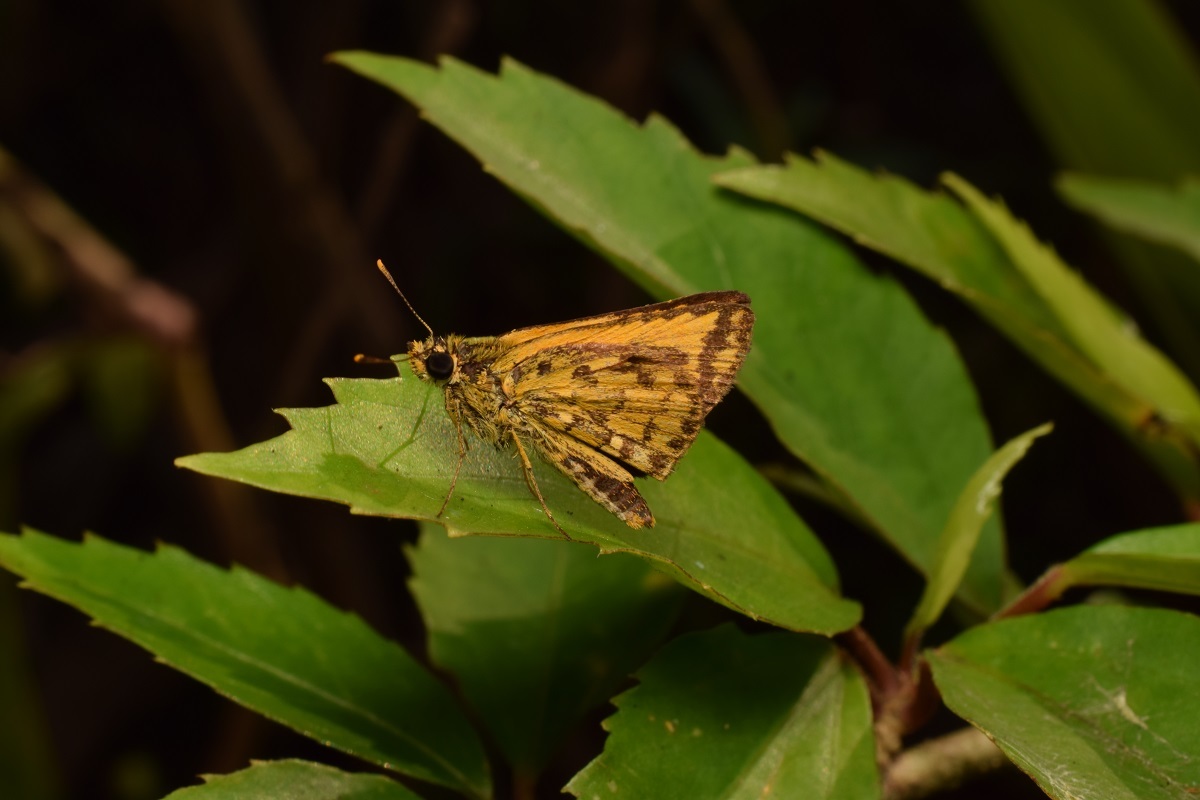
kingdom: Animalia
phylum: Arthropoda
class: Insecta
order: Lepidoptera
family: Hesperiidae
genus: Ampittia
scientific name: Ampittia dioscorides
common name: Common bush hopper
